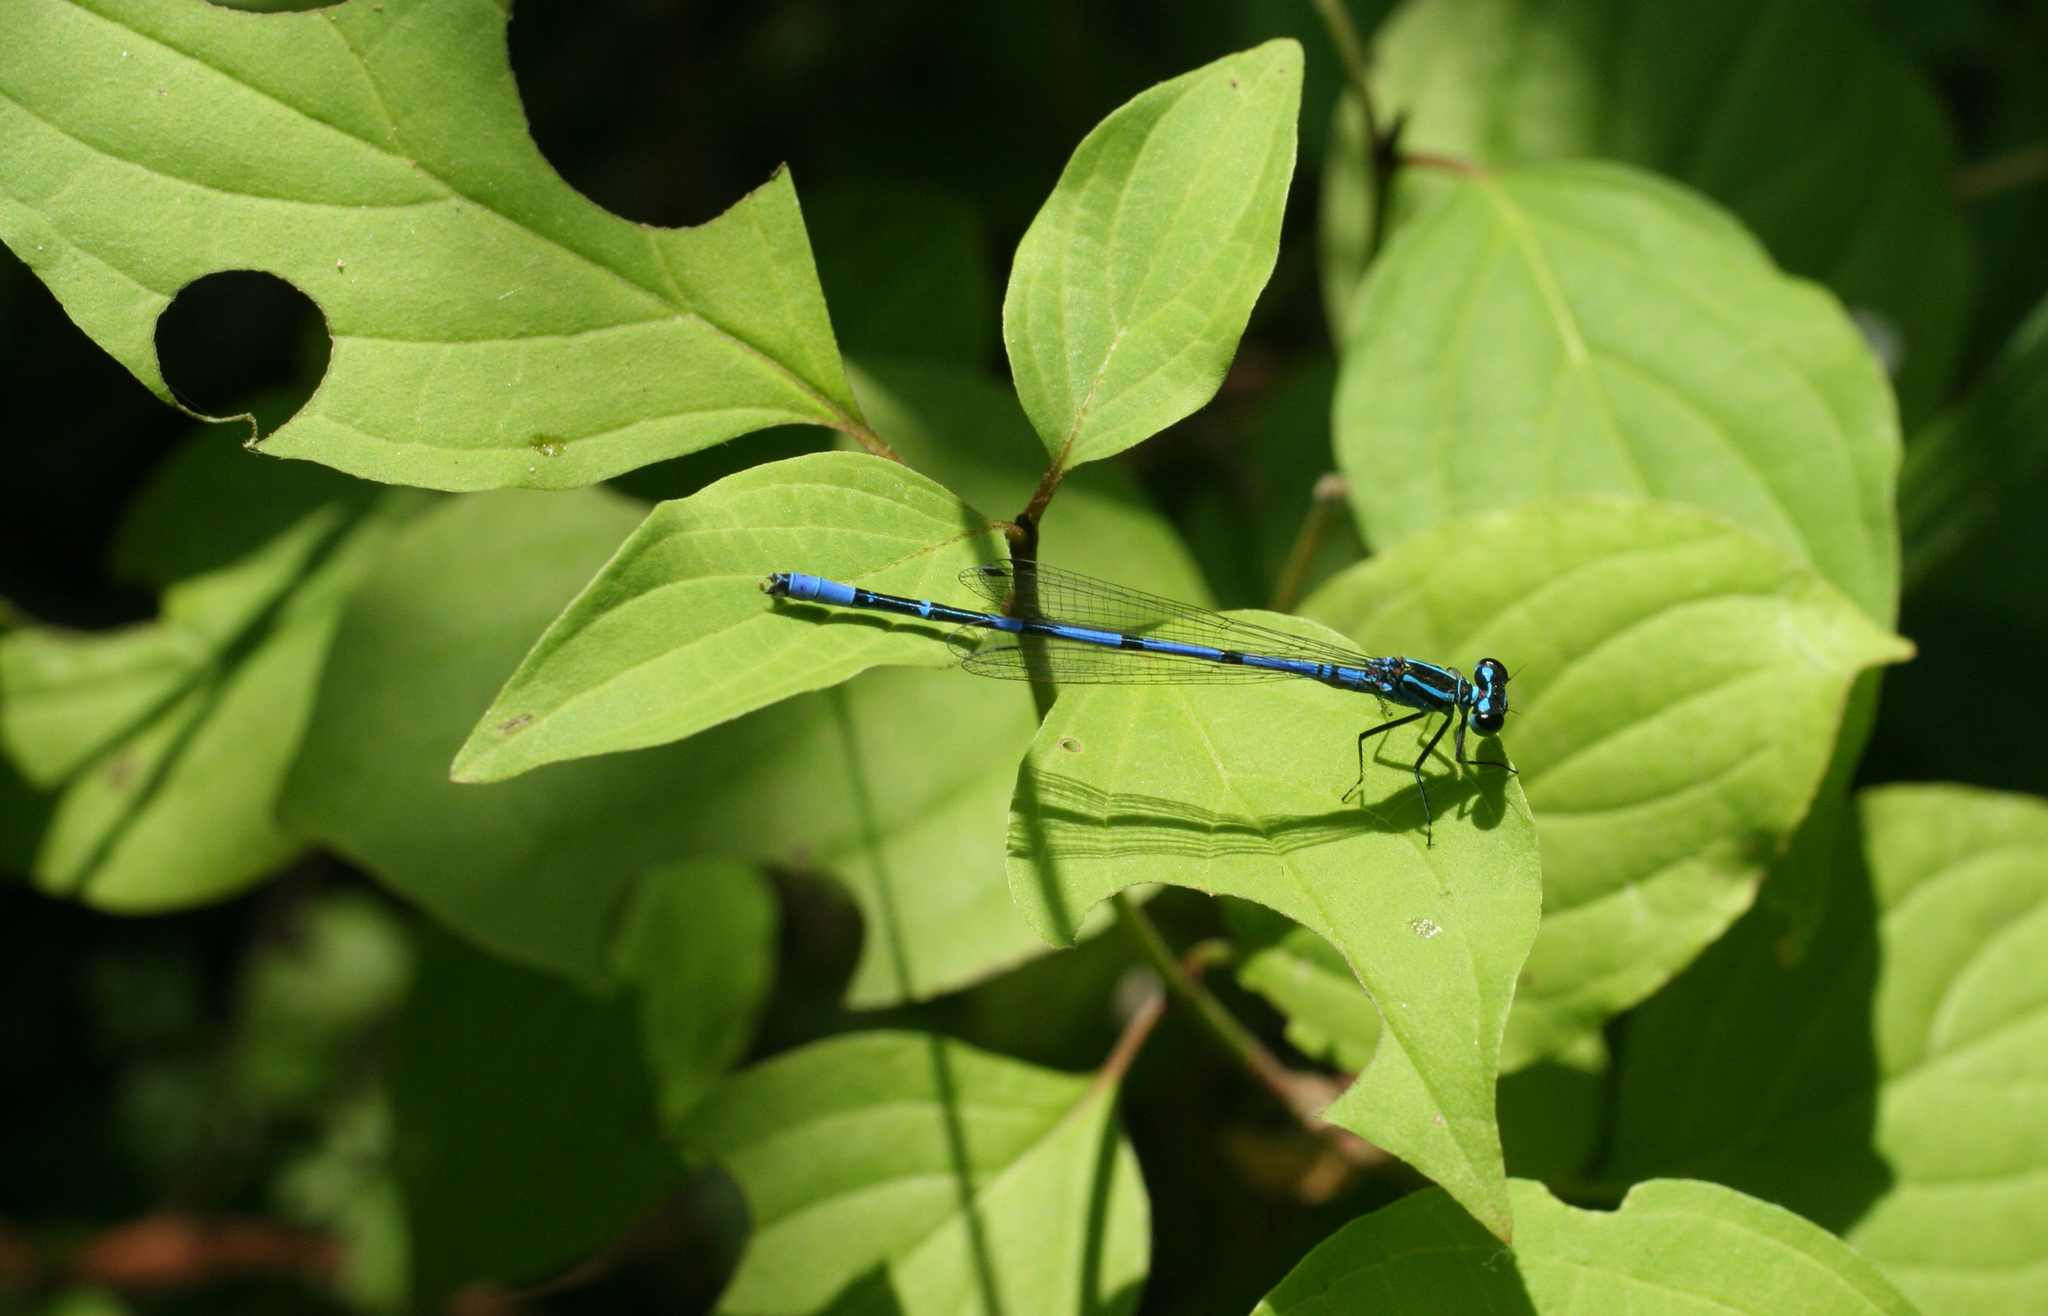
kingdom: Animalia
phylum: Arthropoda
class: Insecta
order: Odonata
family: Coenagrionidae
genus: Coenagrion
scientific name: Coenagrion australocaspicum
